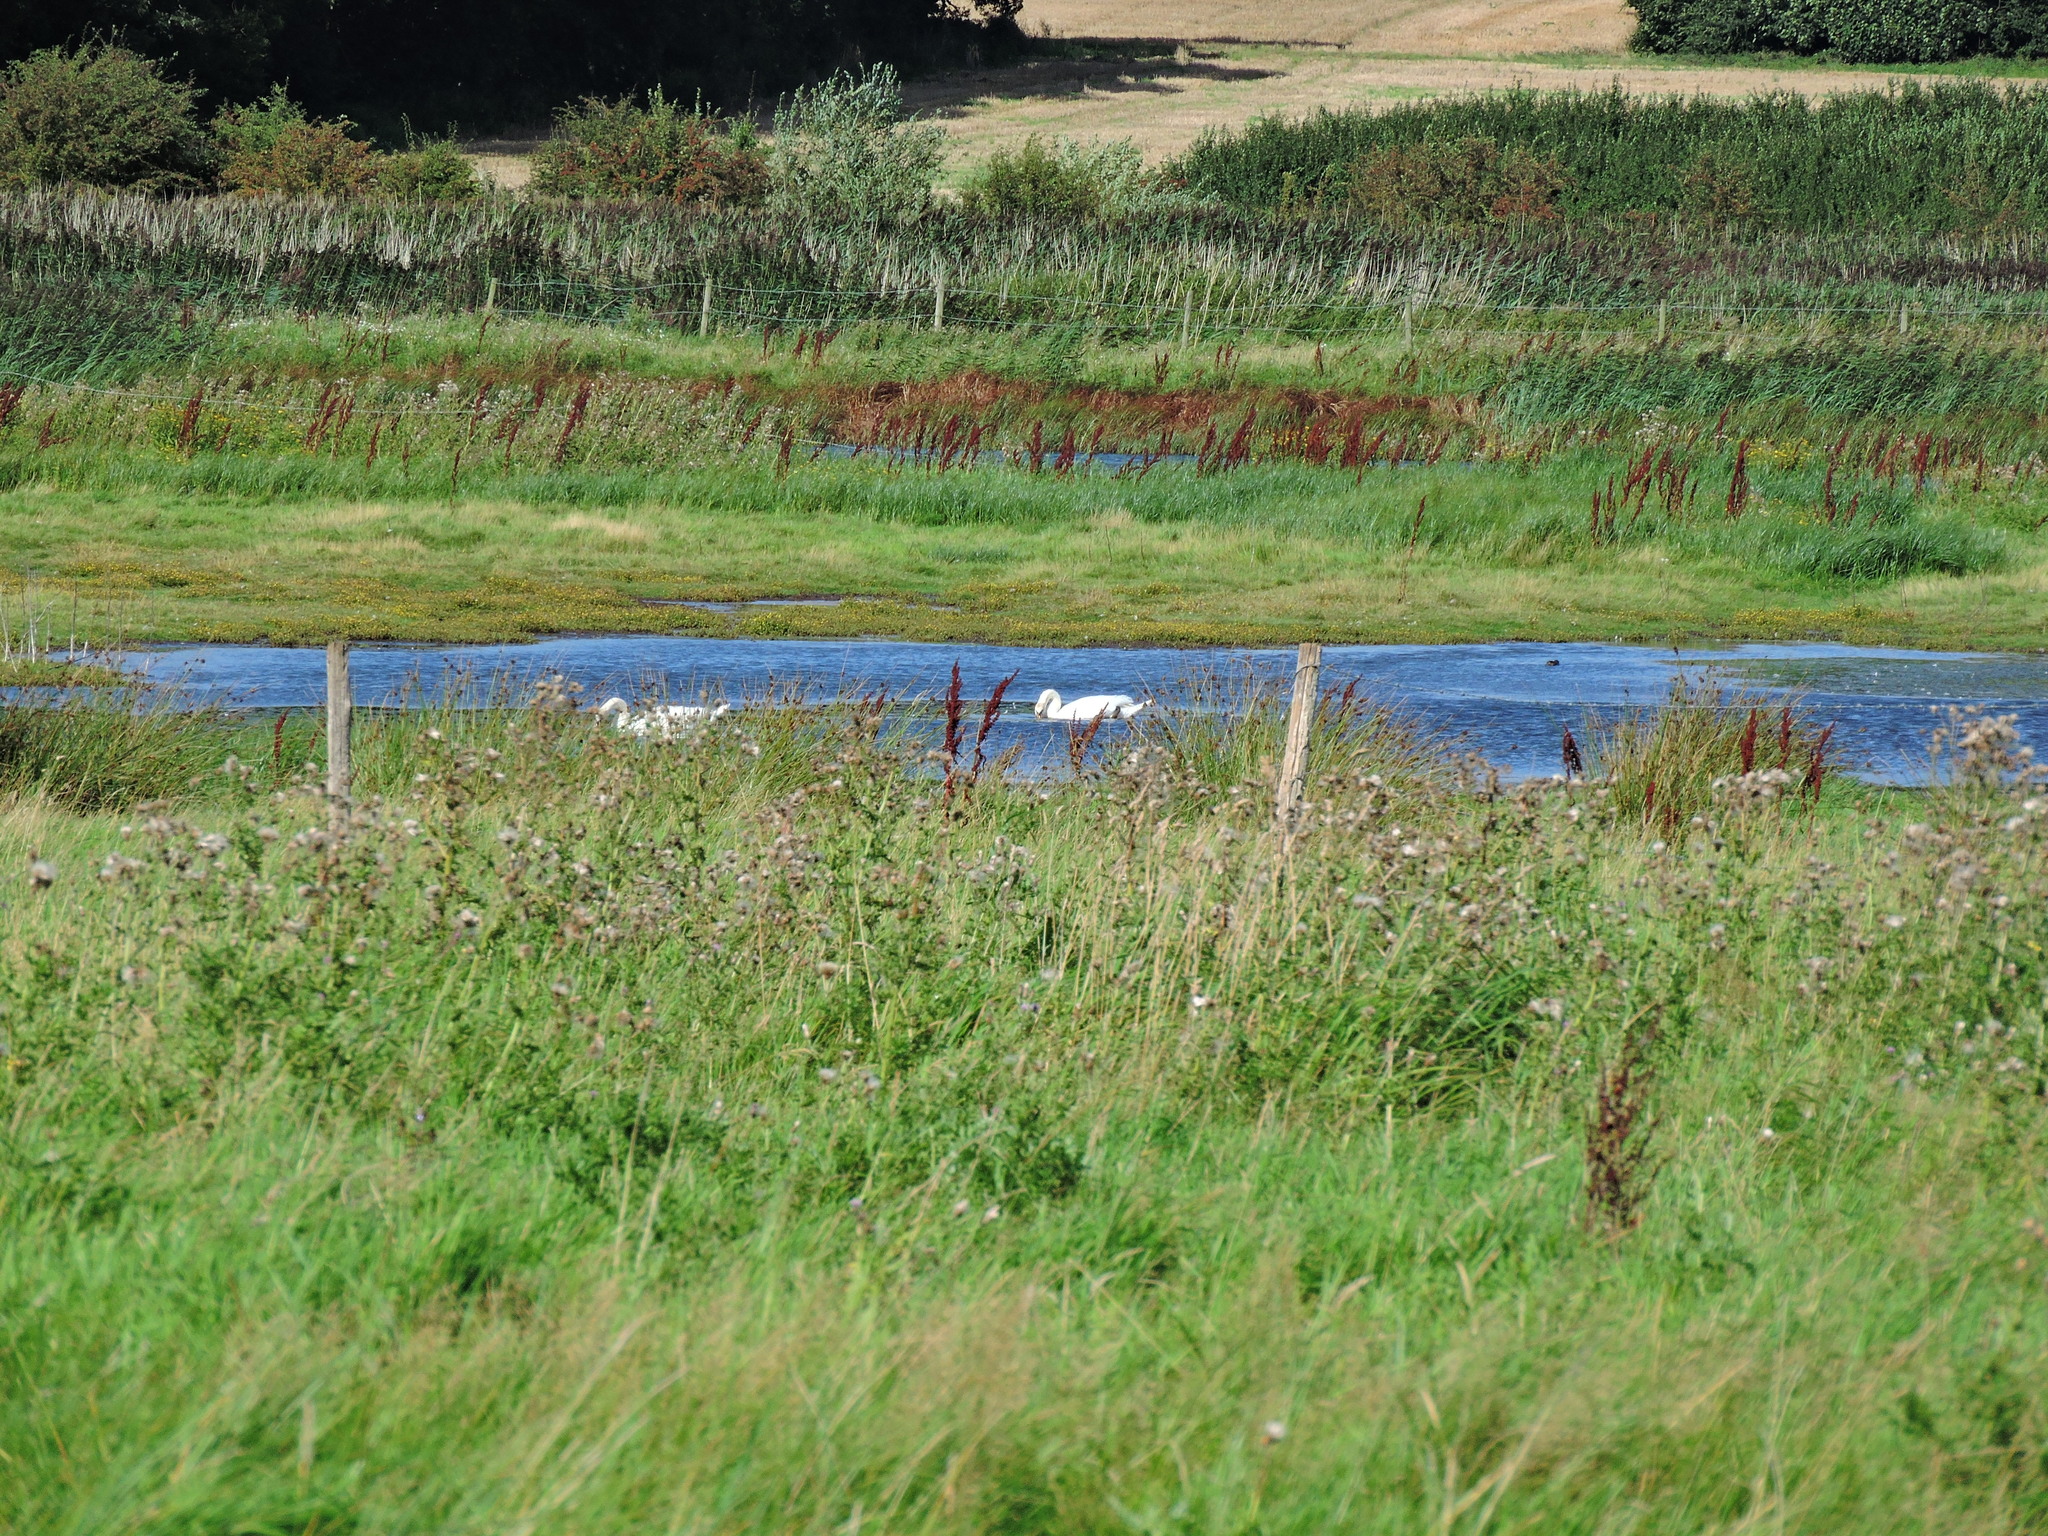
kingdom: Animalia
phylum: Chordata
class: Aves
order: Anseriformes
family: Anatidae
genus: Cygnus
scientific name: Cygnus olor
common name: Mute swan
